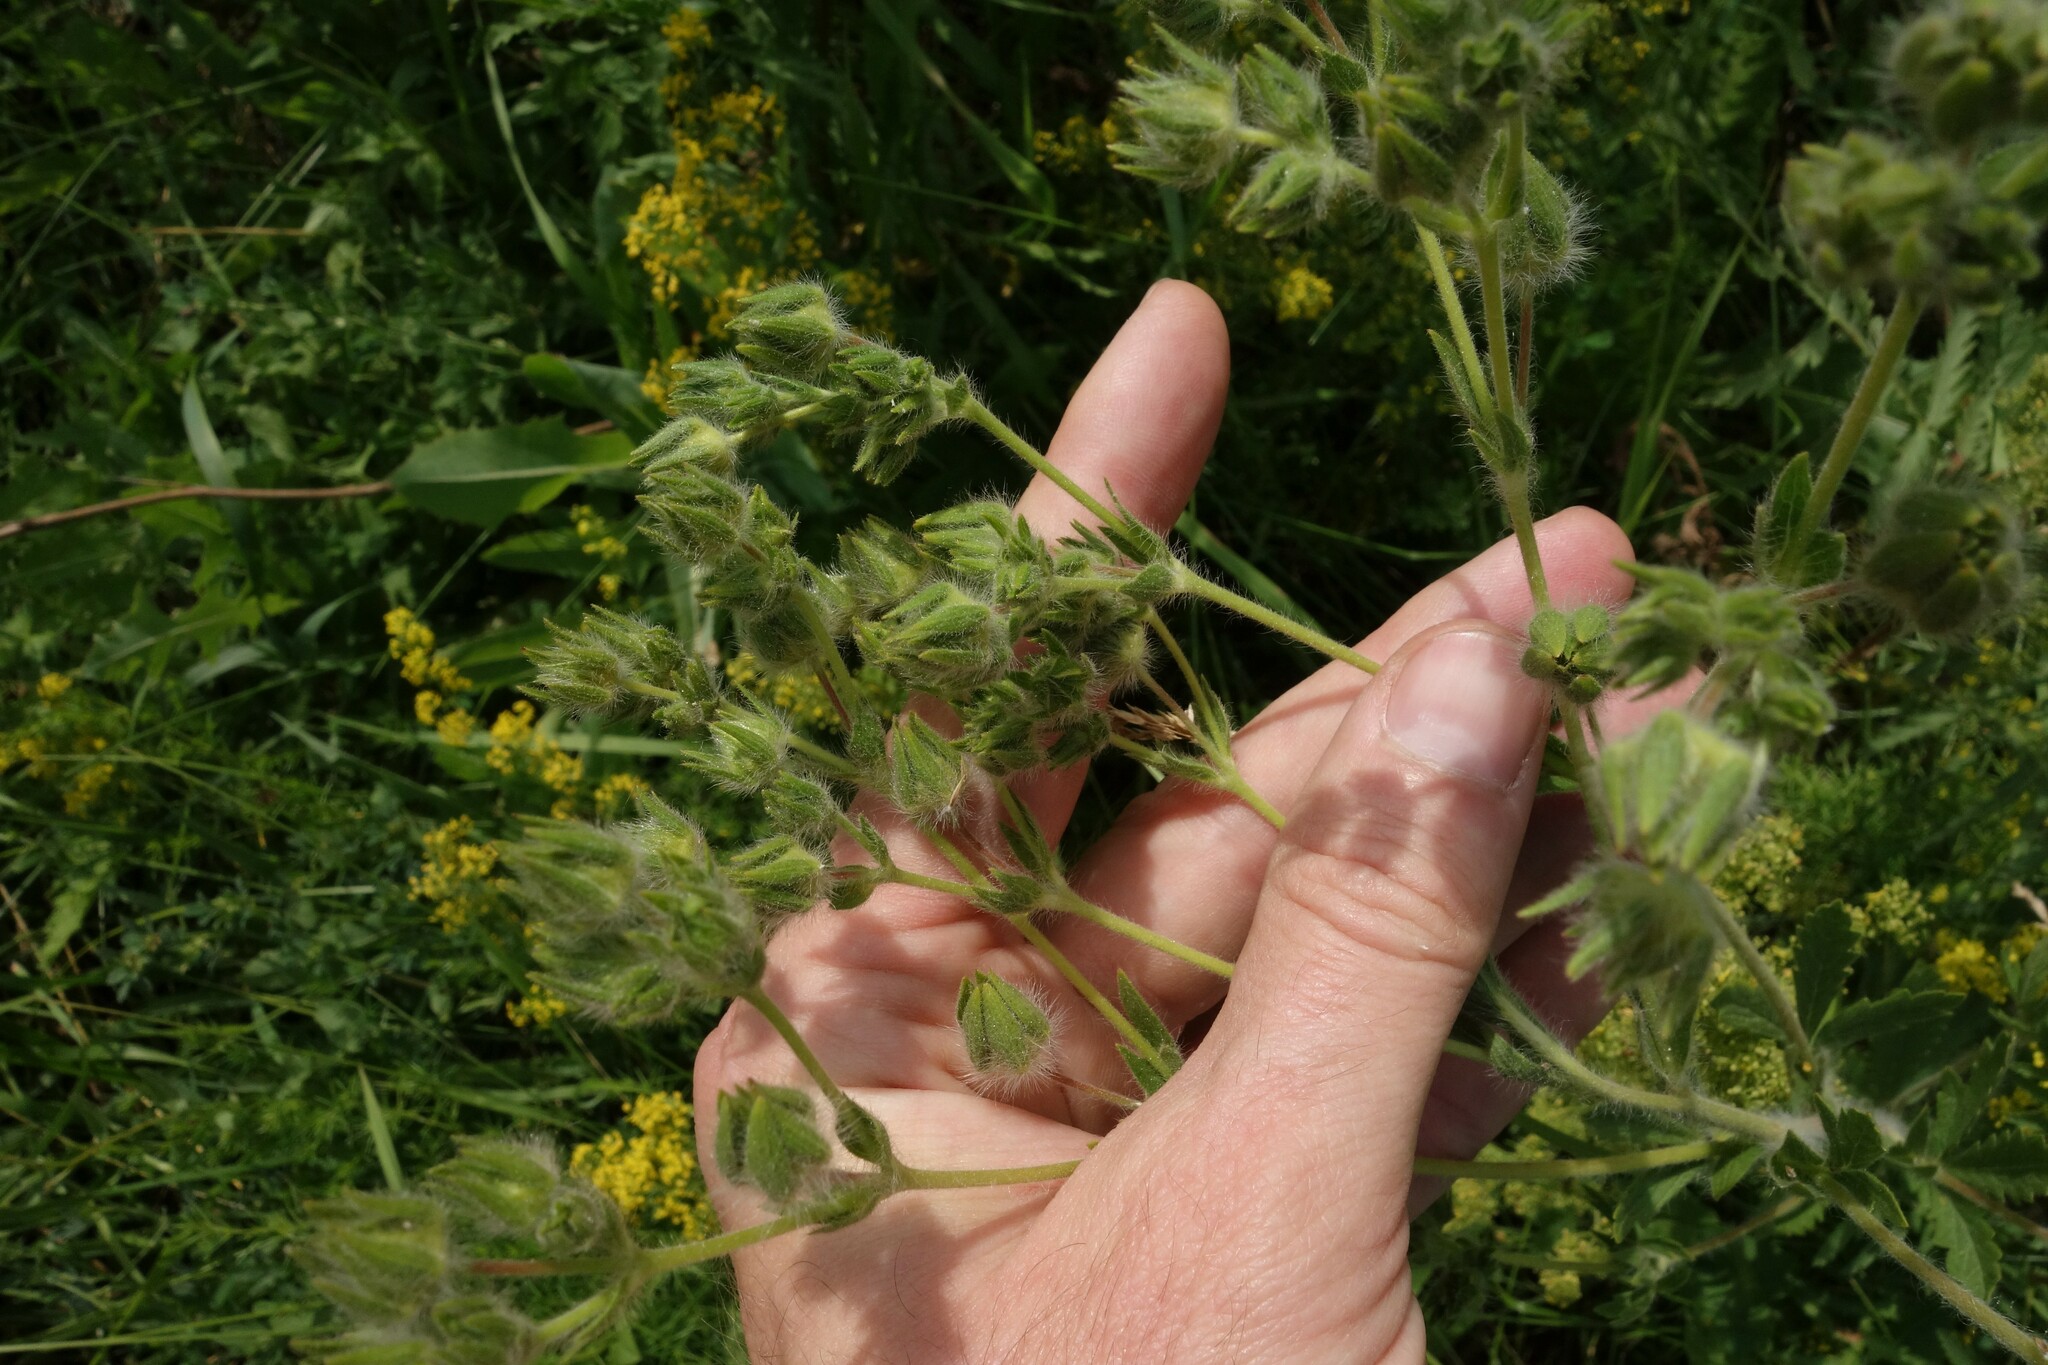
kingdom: Plantae
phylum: Tracheophyta
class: Magnoliopsida
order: Rosales
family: Rosaceae
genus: Potentilla
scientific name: Potentilla recta
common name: Sulphur cinquefoil
